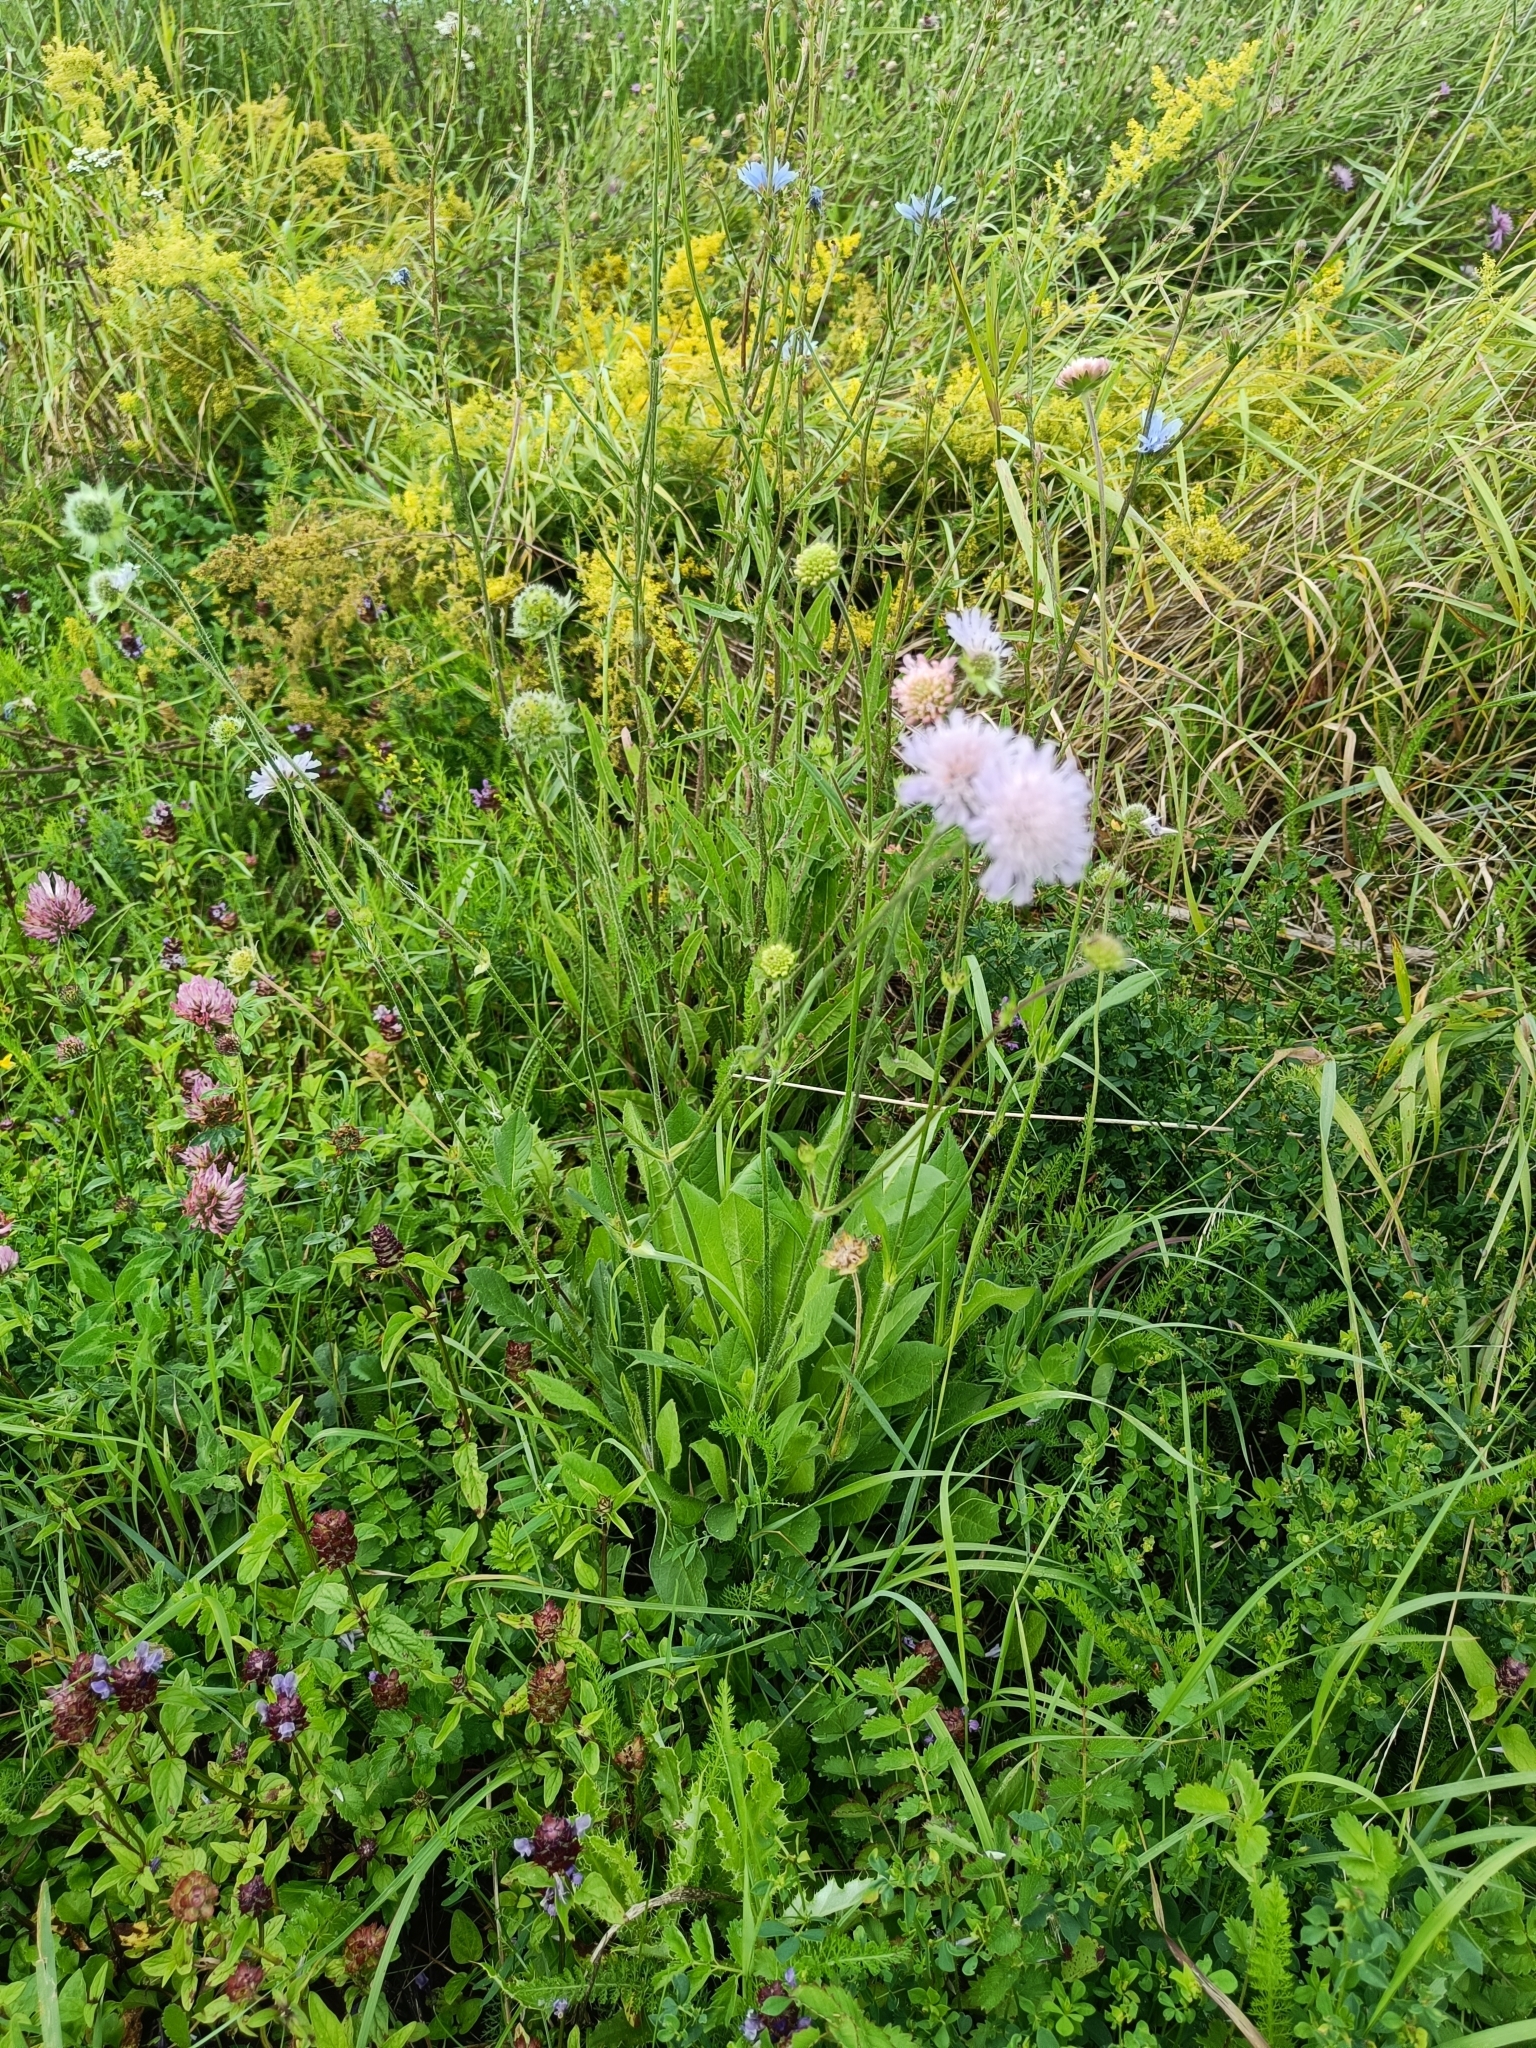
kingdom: Plantae
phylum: Tracheophyta
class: Magnoliopsida
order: Dipsacales
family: Caprifoliaceae
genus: Knautia
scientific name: Knautia arvensis
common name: Field scabiosa
